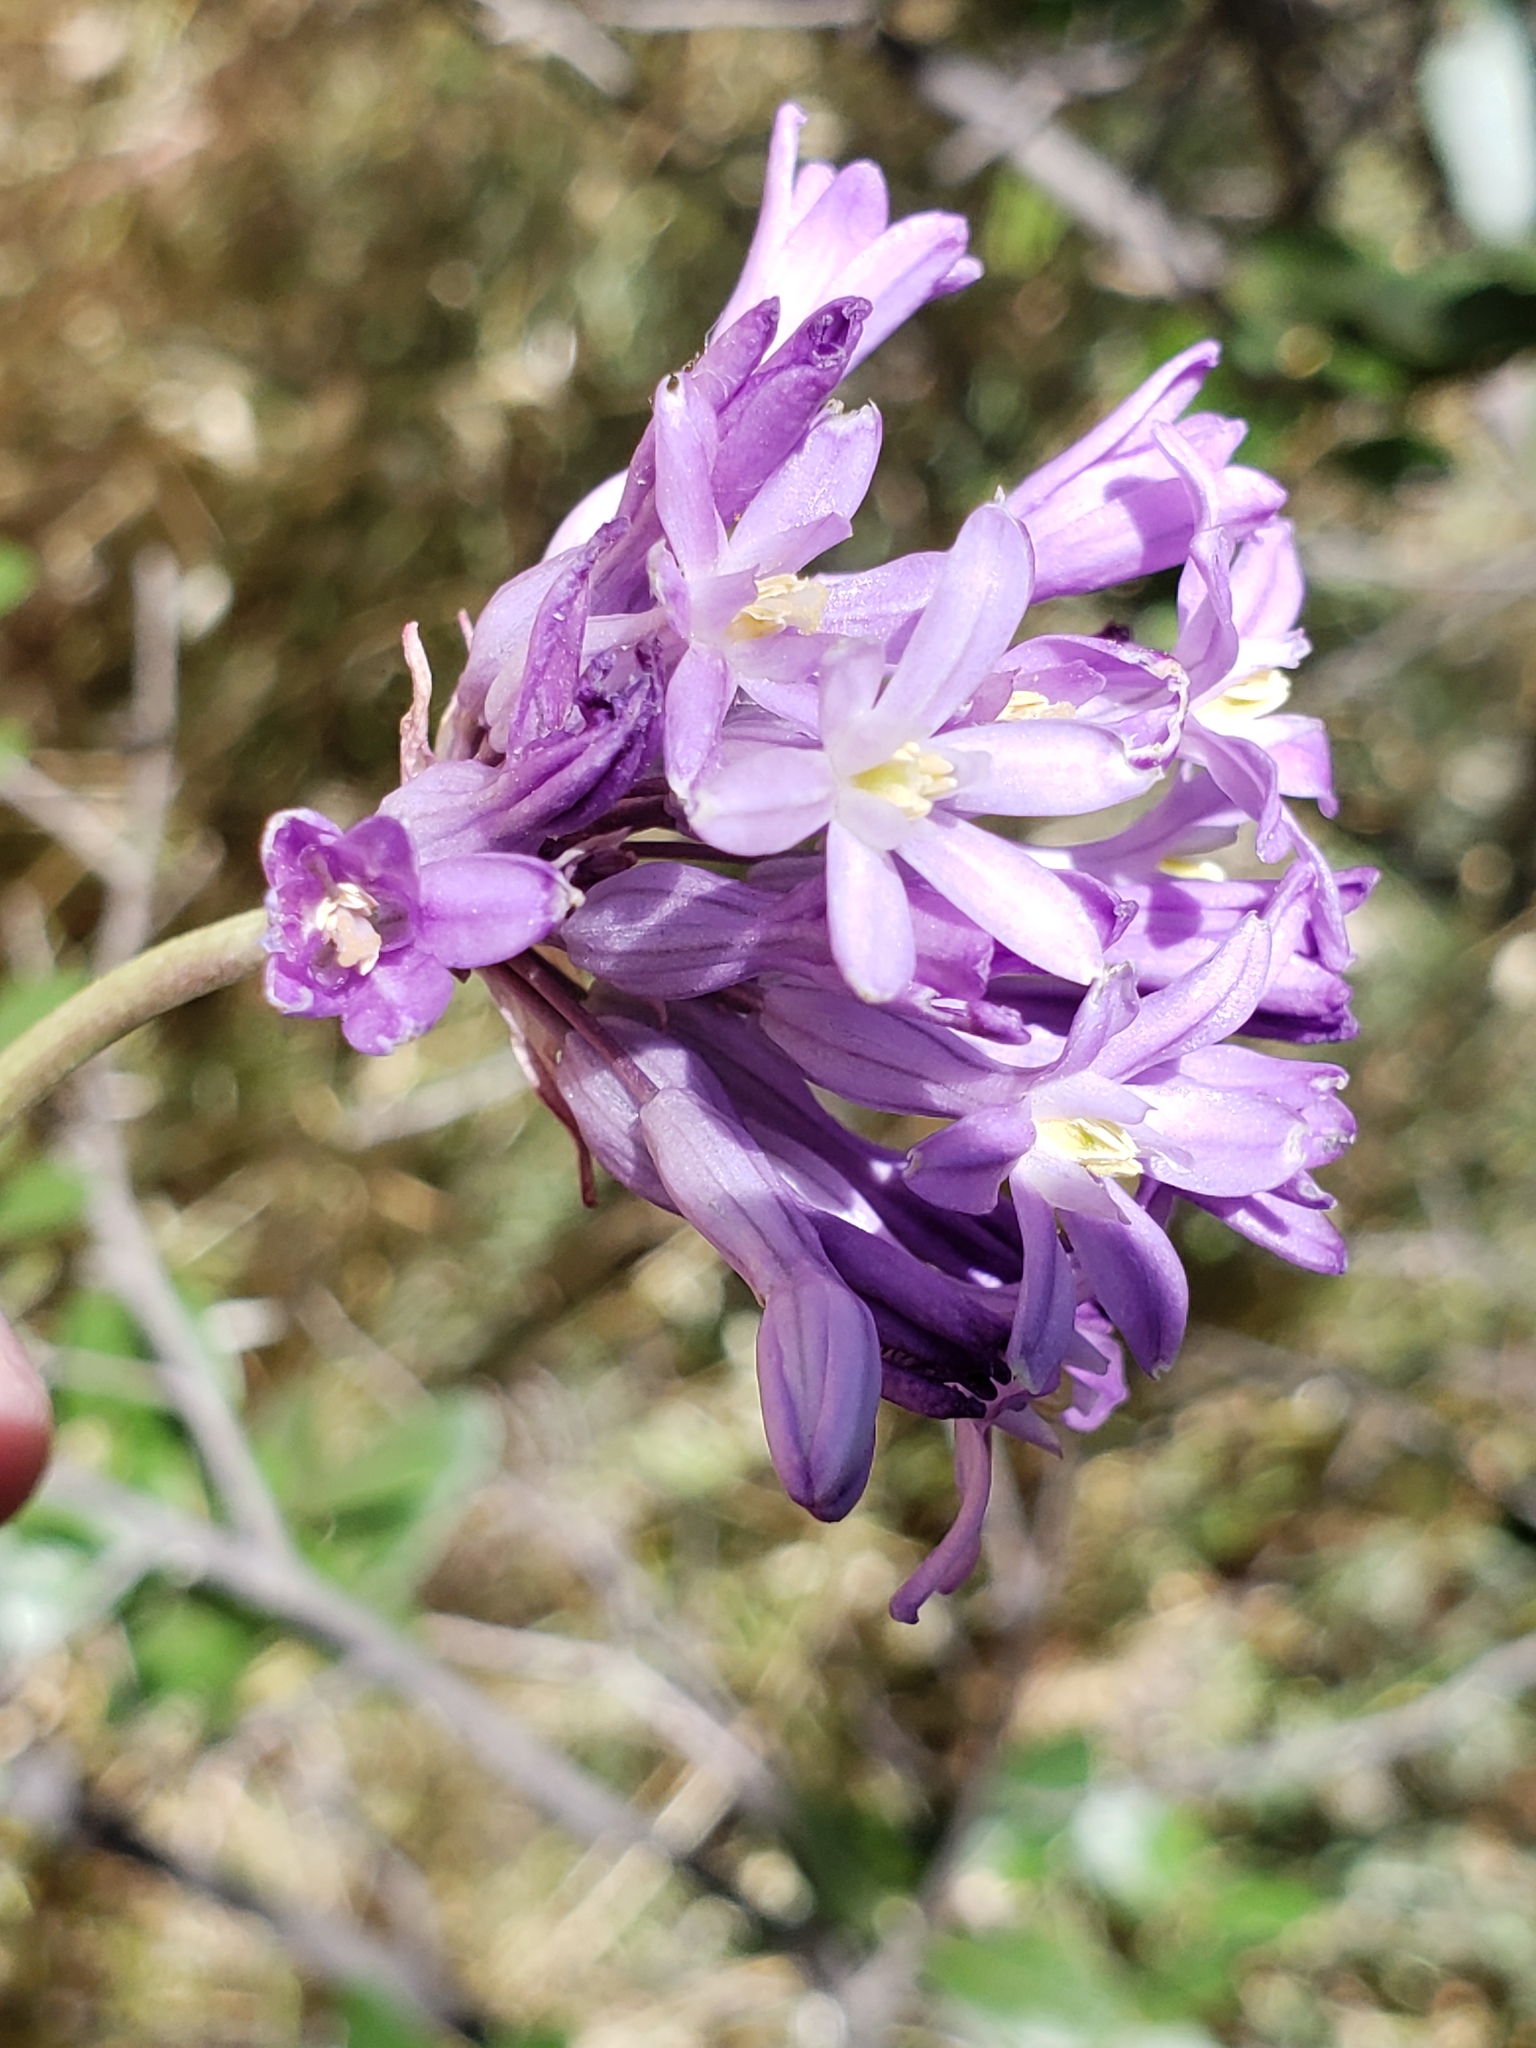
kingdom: Plantae
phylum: Tracheophyta
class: Liliopsida
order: Asparagales
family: Asparagaceae
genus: Dichelostemma
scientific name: Dichelostemma multiflorum
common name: Round-tooth ookow
